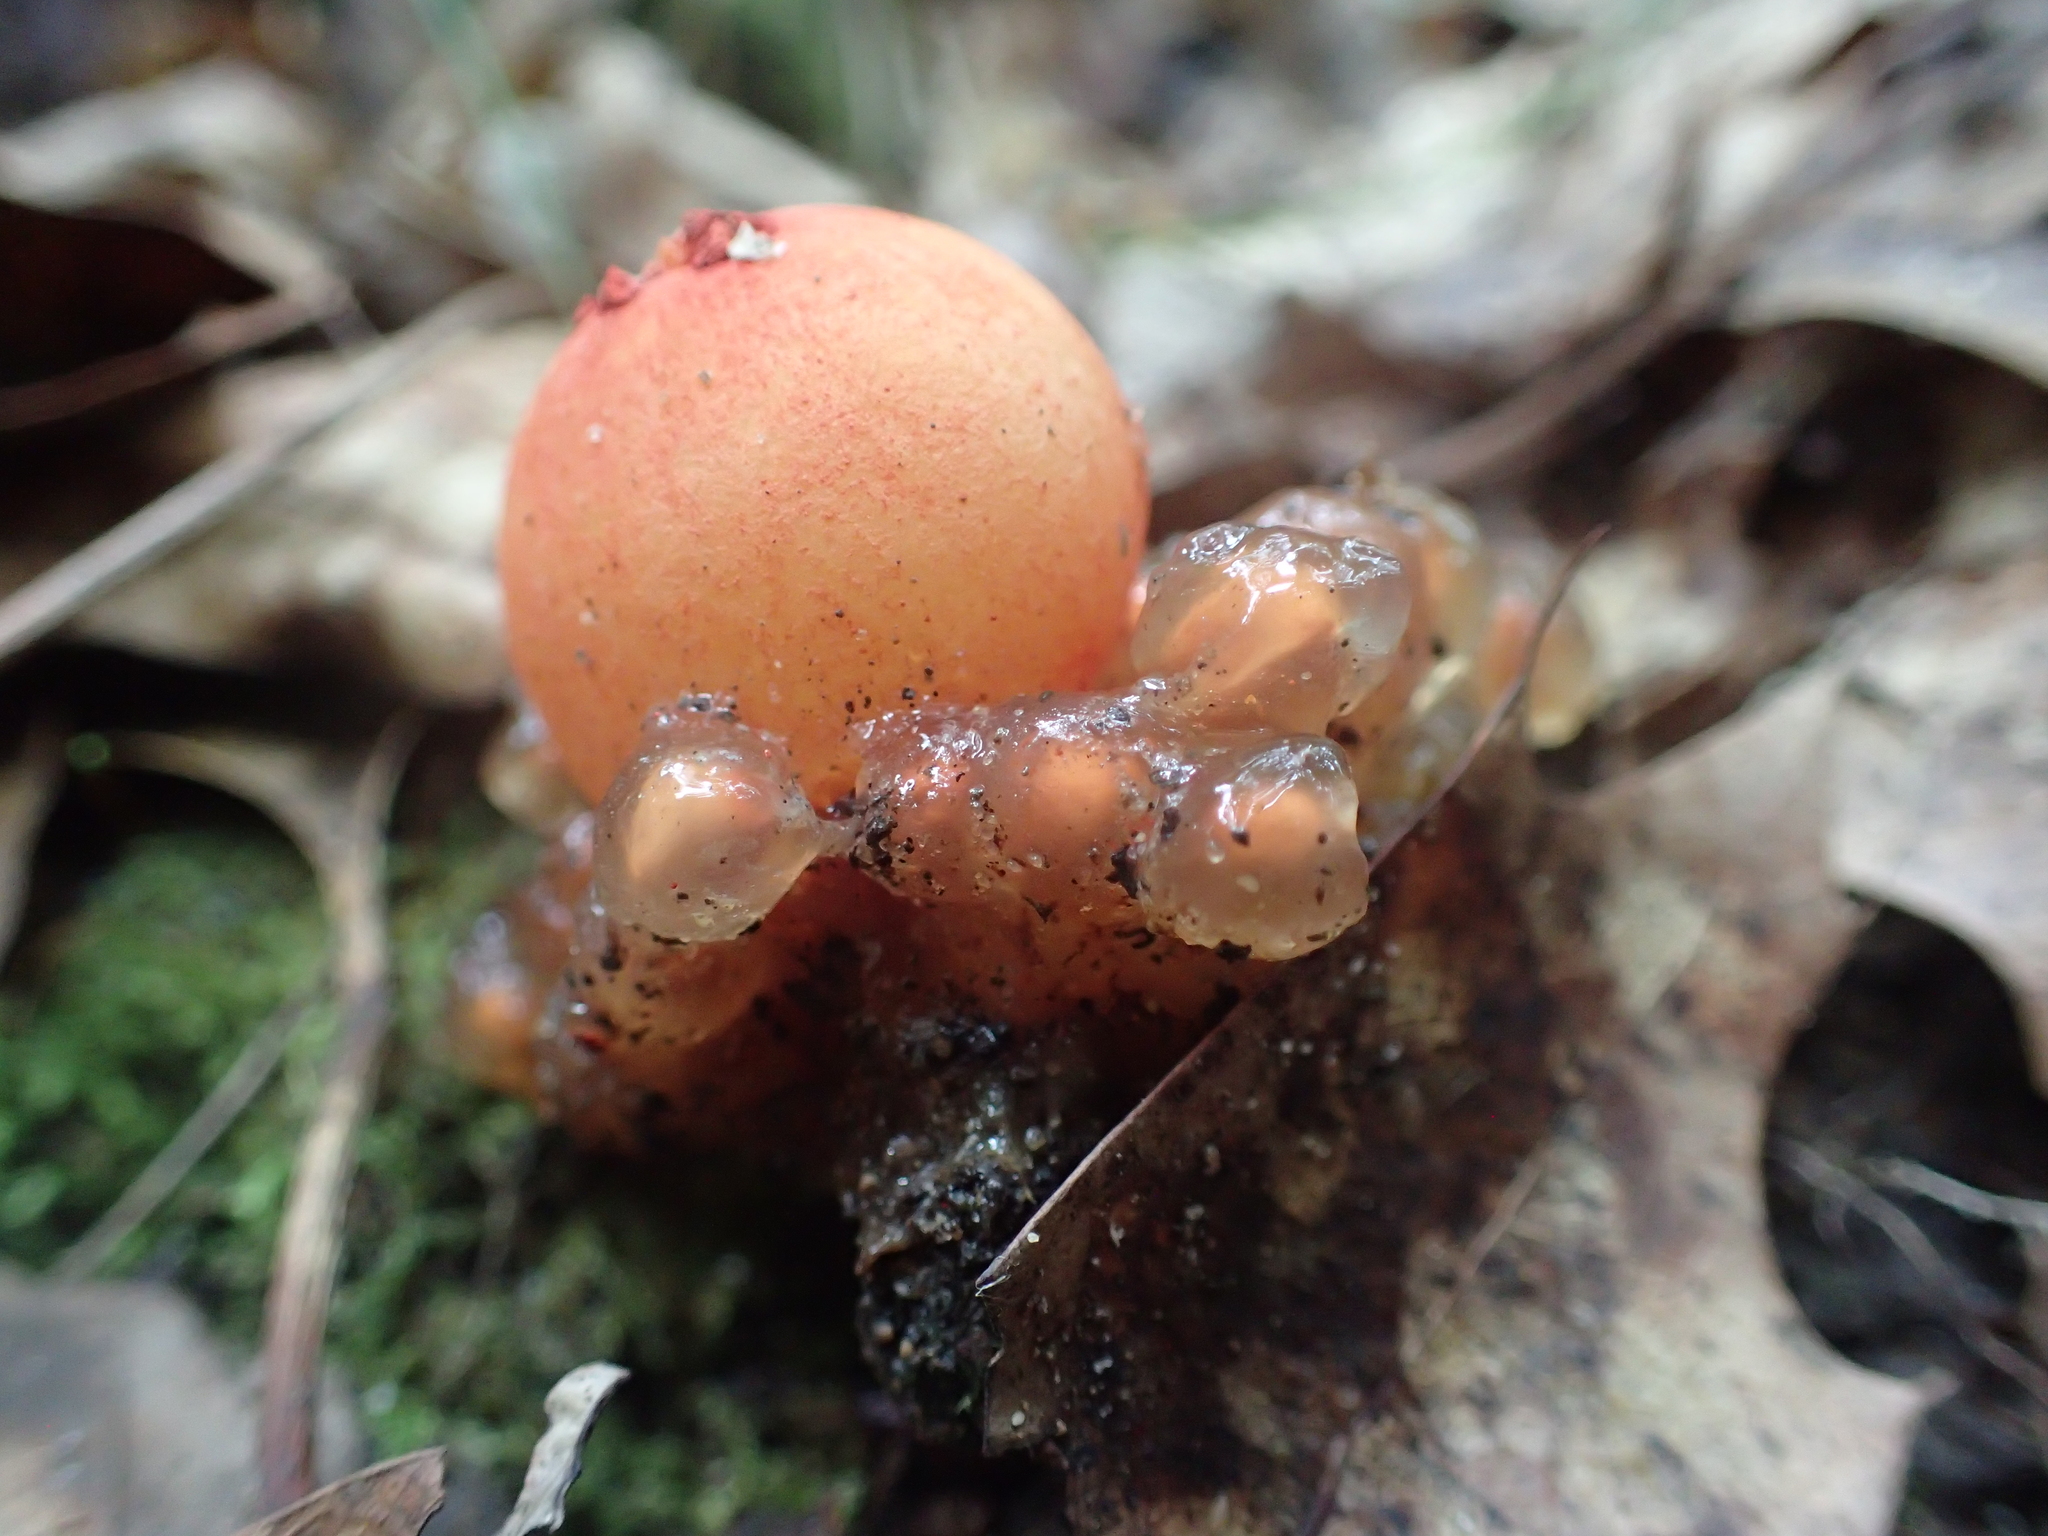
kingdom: Fungi
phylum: Basidiomycota
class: Agaricomycetes
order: Boletales
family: Calostomataceae
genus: Calostoma
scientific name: Calostoma cinnabarinum
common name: Stalked puffball-in-aspic
